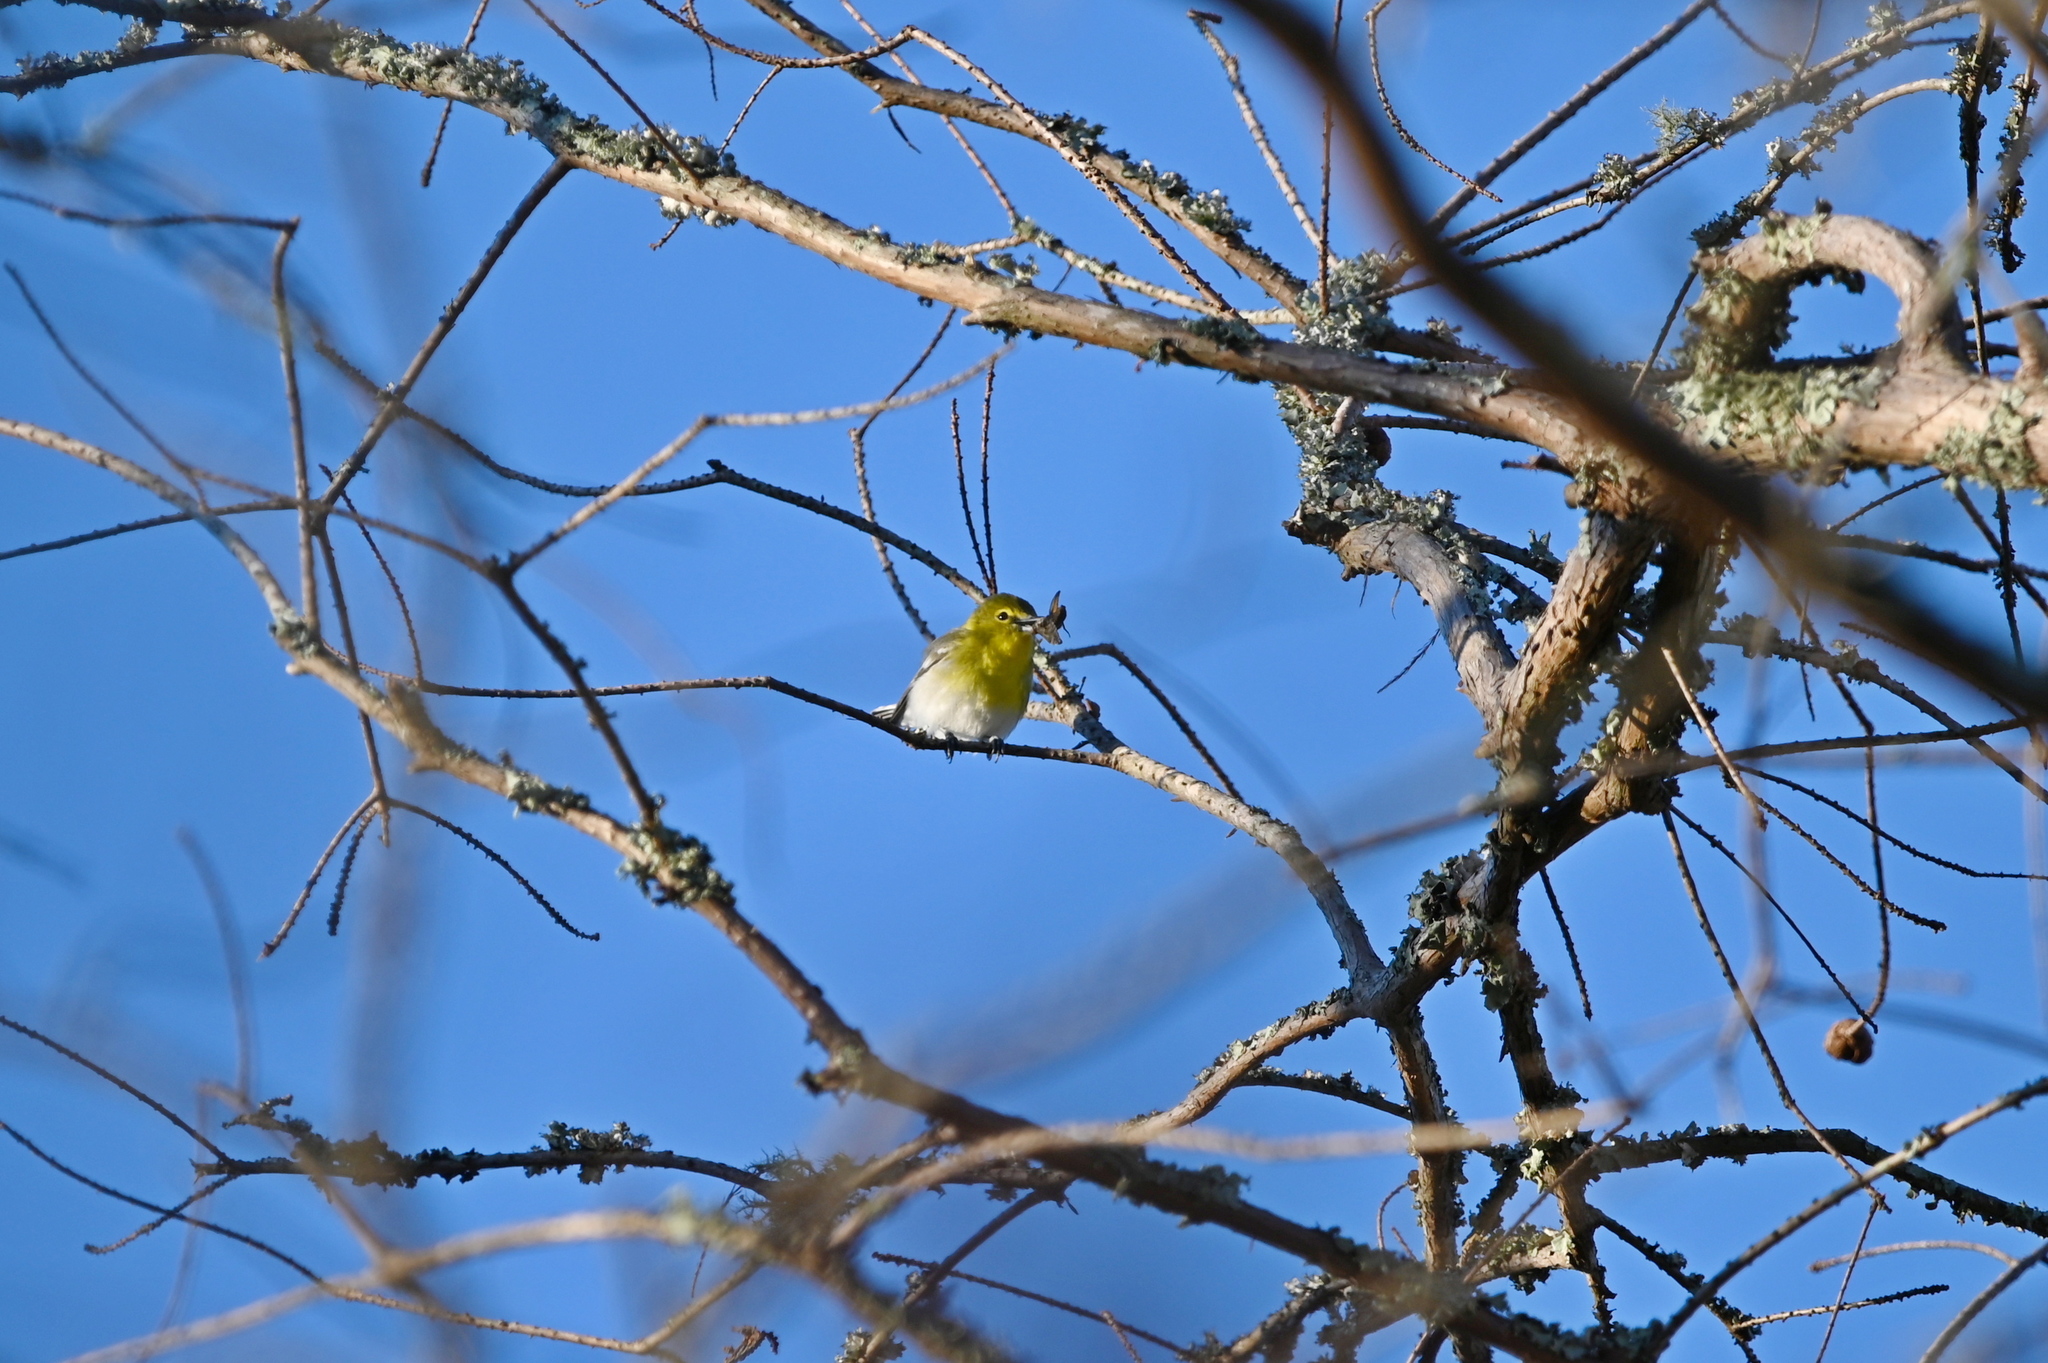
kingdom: Animalia
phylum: Chordata
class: Aves
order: Passeriformes
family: Vireonidae
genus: Vireo
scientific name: Vireo flavifrons
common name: Yellow-throated vireo
